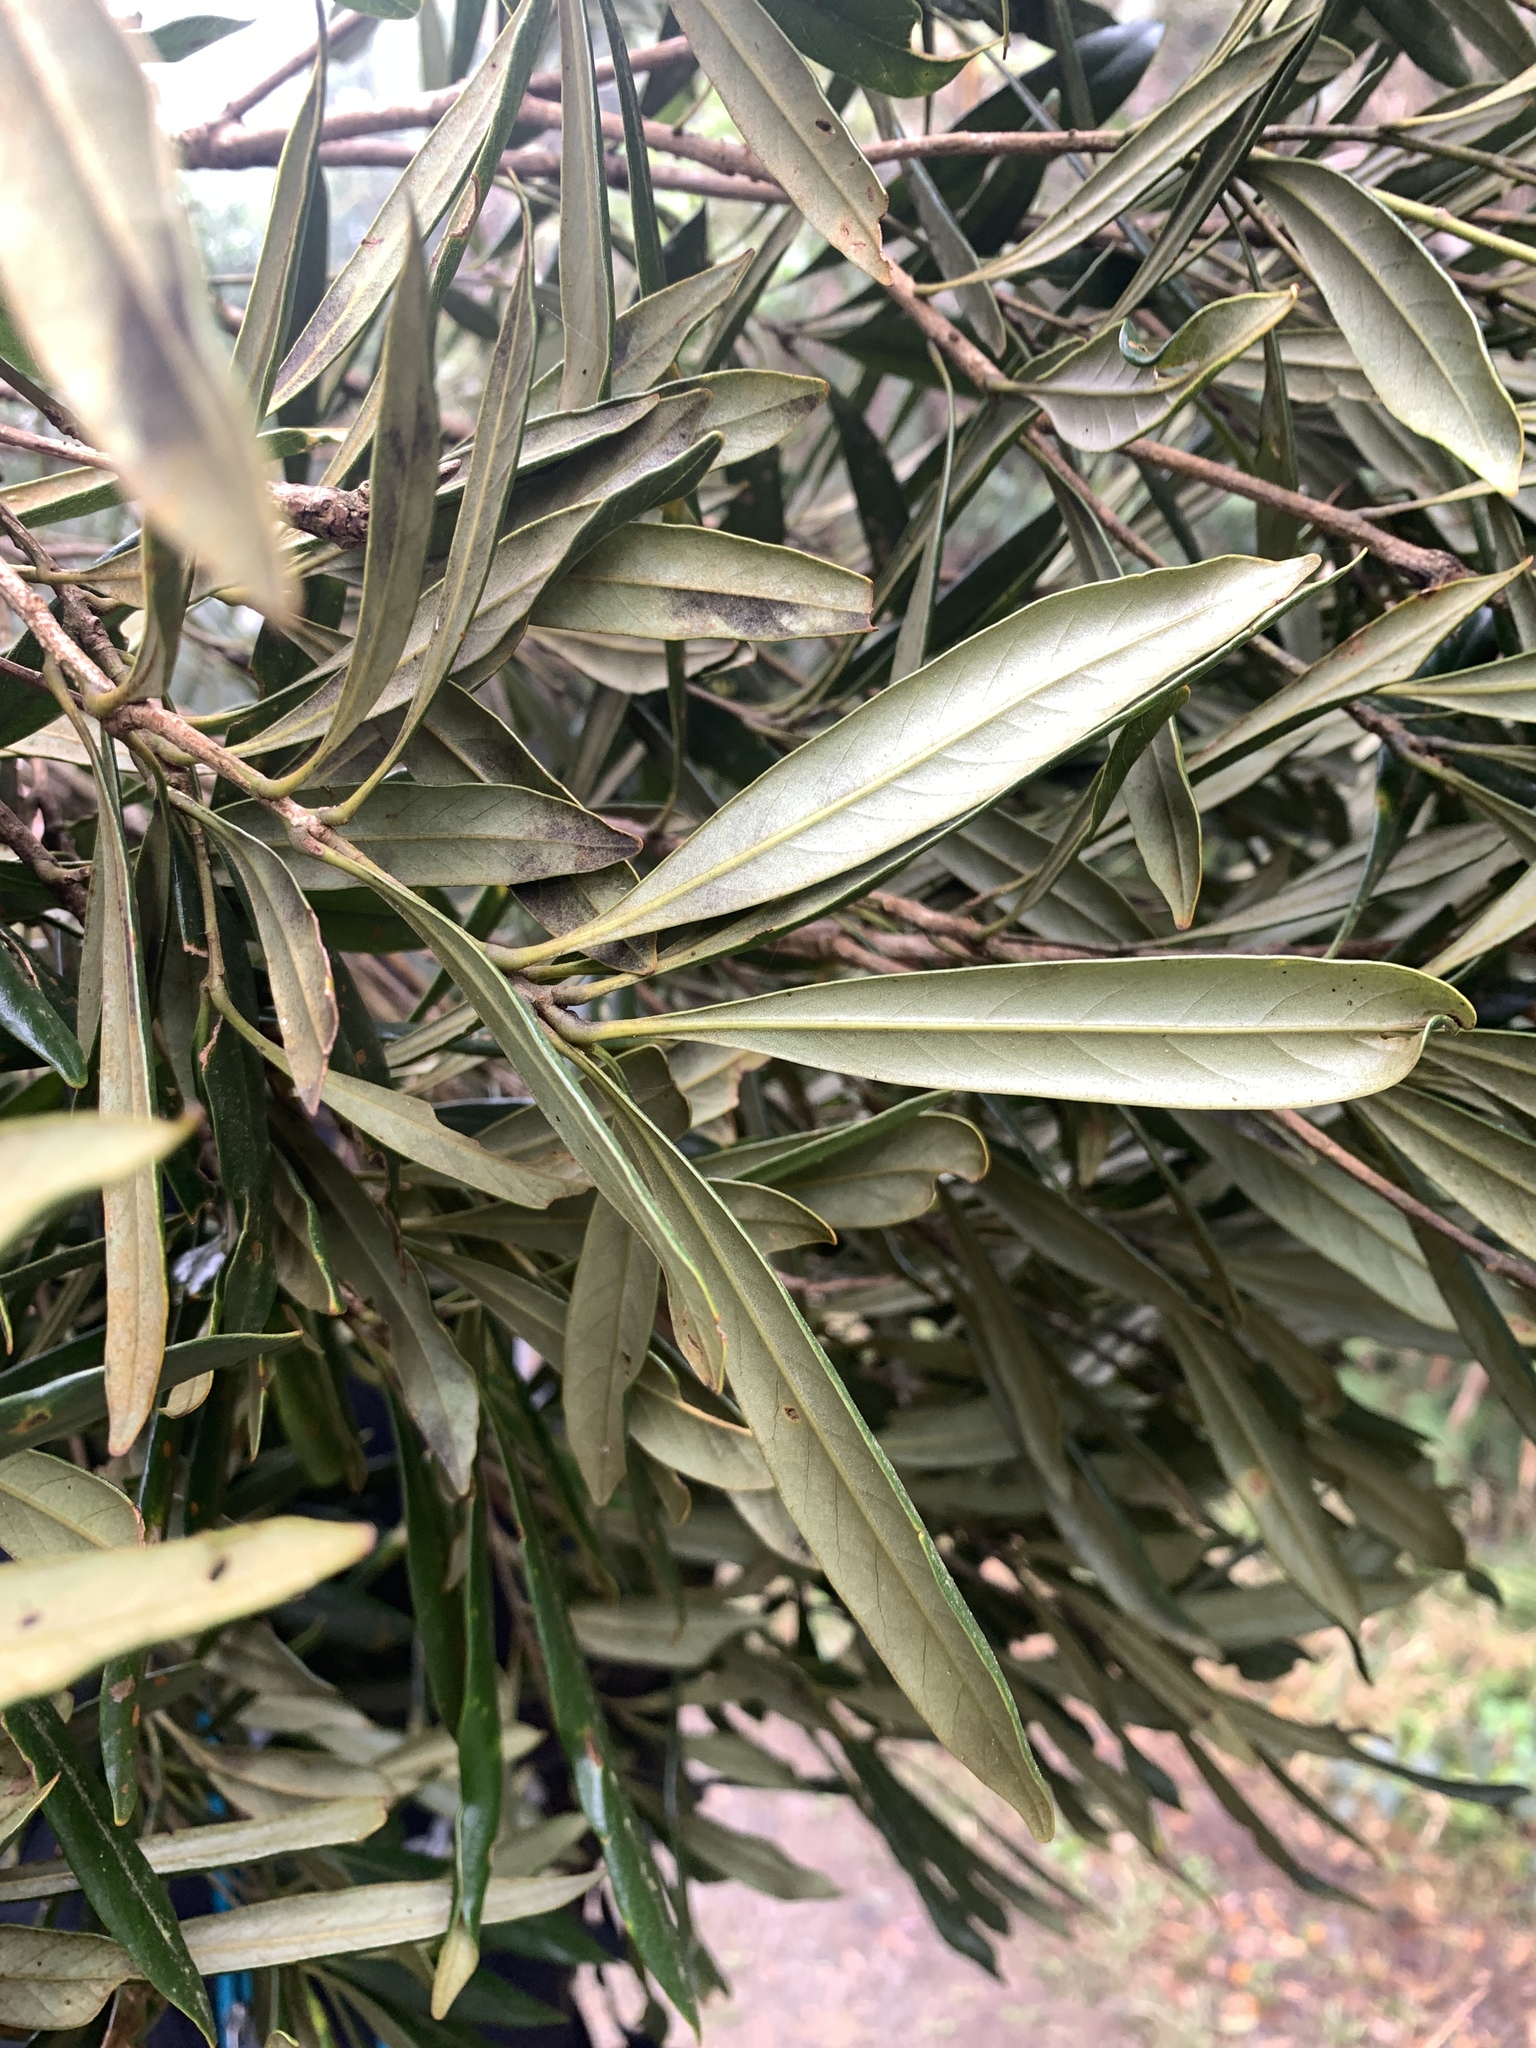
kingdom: Plantae
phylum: Tracheophyta
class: Magnoliopsida
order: Fagales
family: Fagaceae
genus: Lithocarpus
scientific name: Lithocarpus dodonaeifolius
